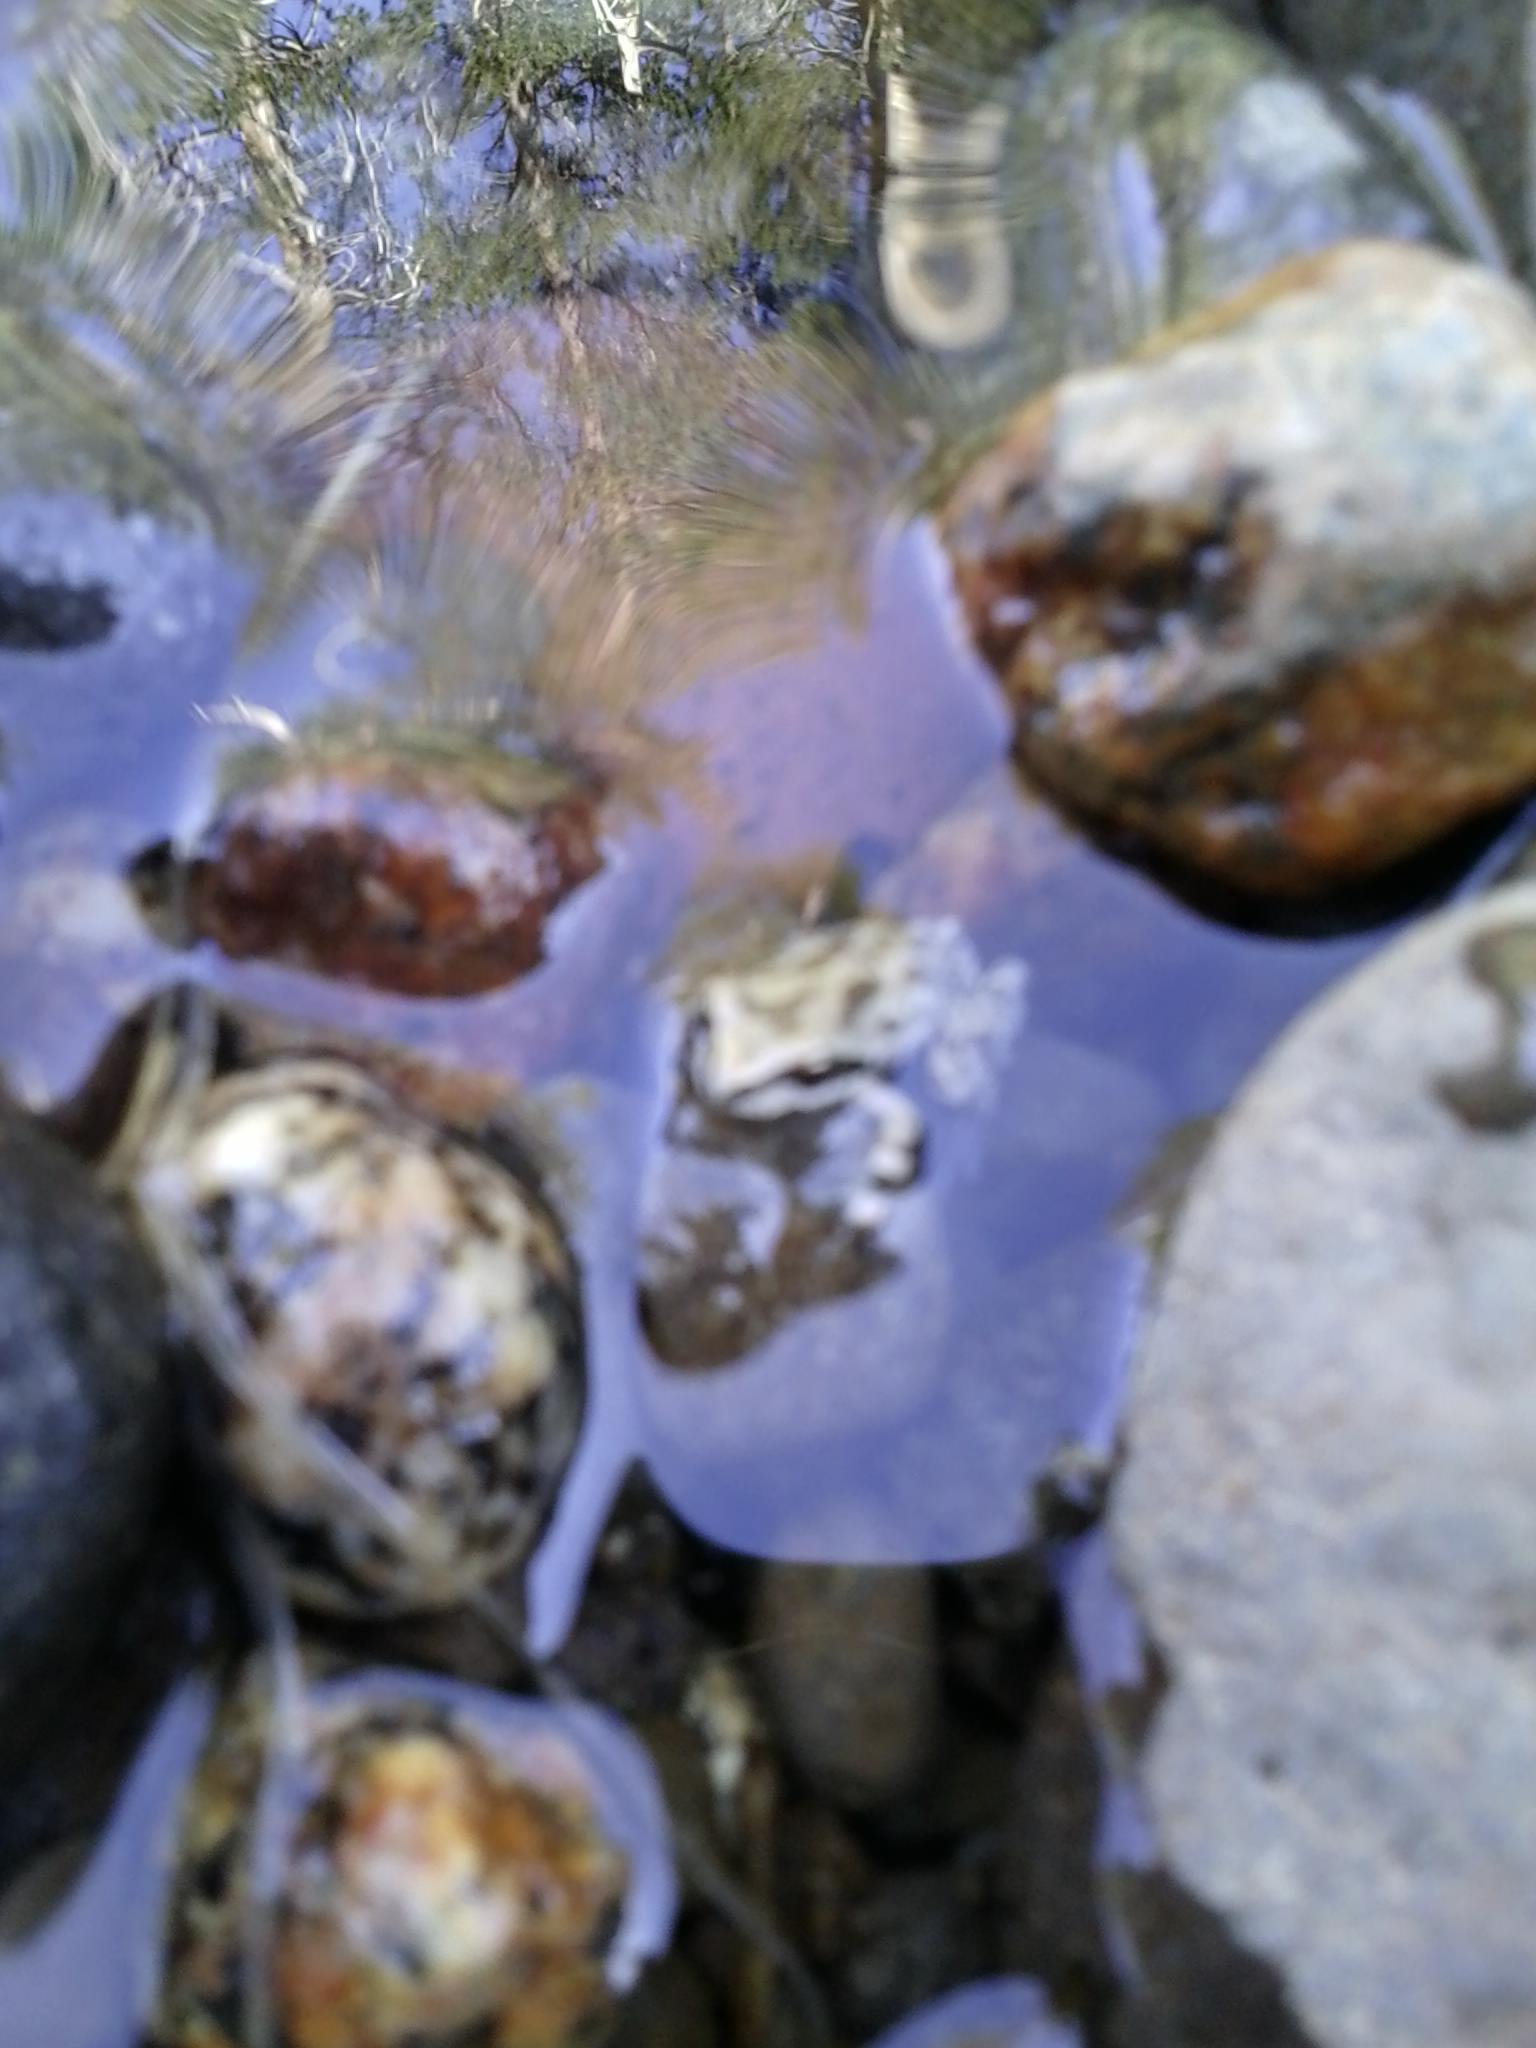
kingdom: Animalia
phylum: Chordata
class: Amphibia
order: Anura
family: Hylidae
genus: Pseudacris
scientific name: Pseudacris regilla
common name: Pacific chorus frog
